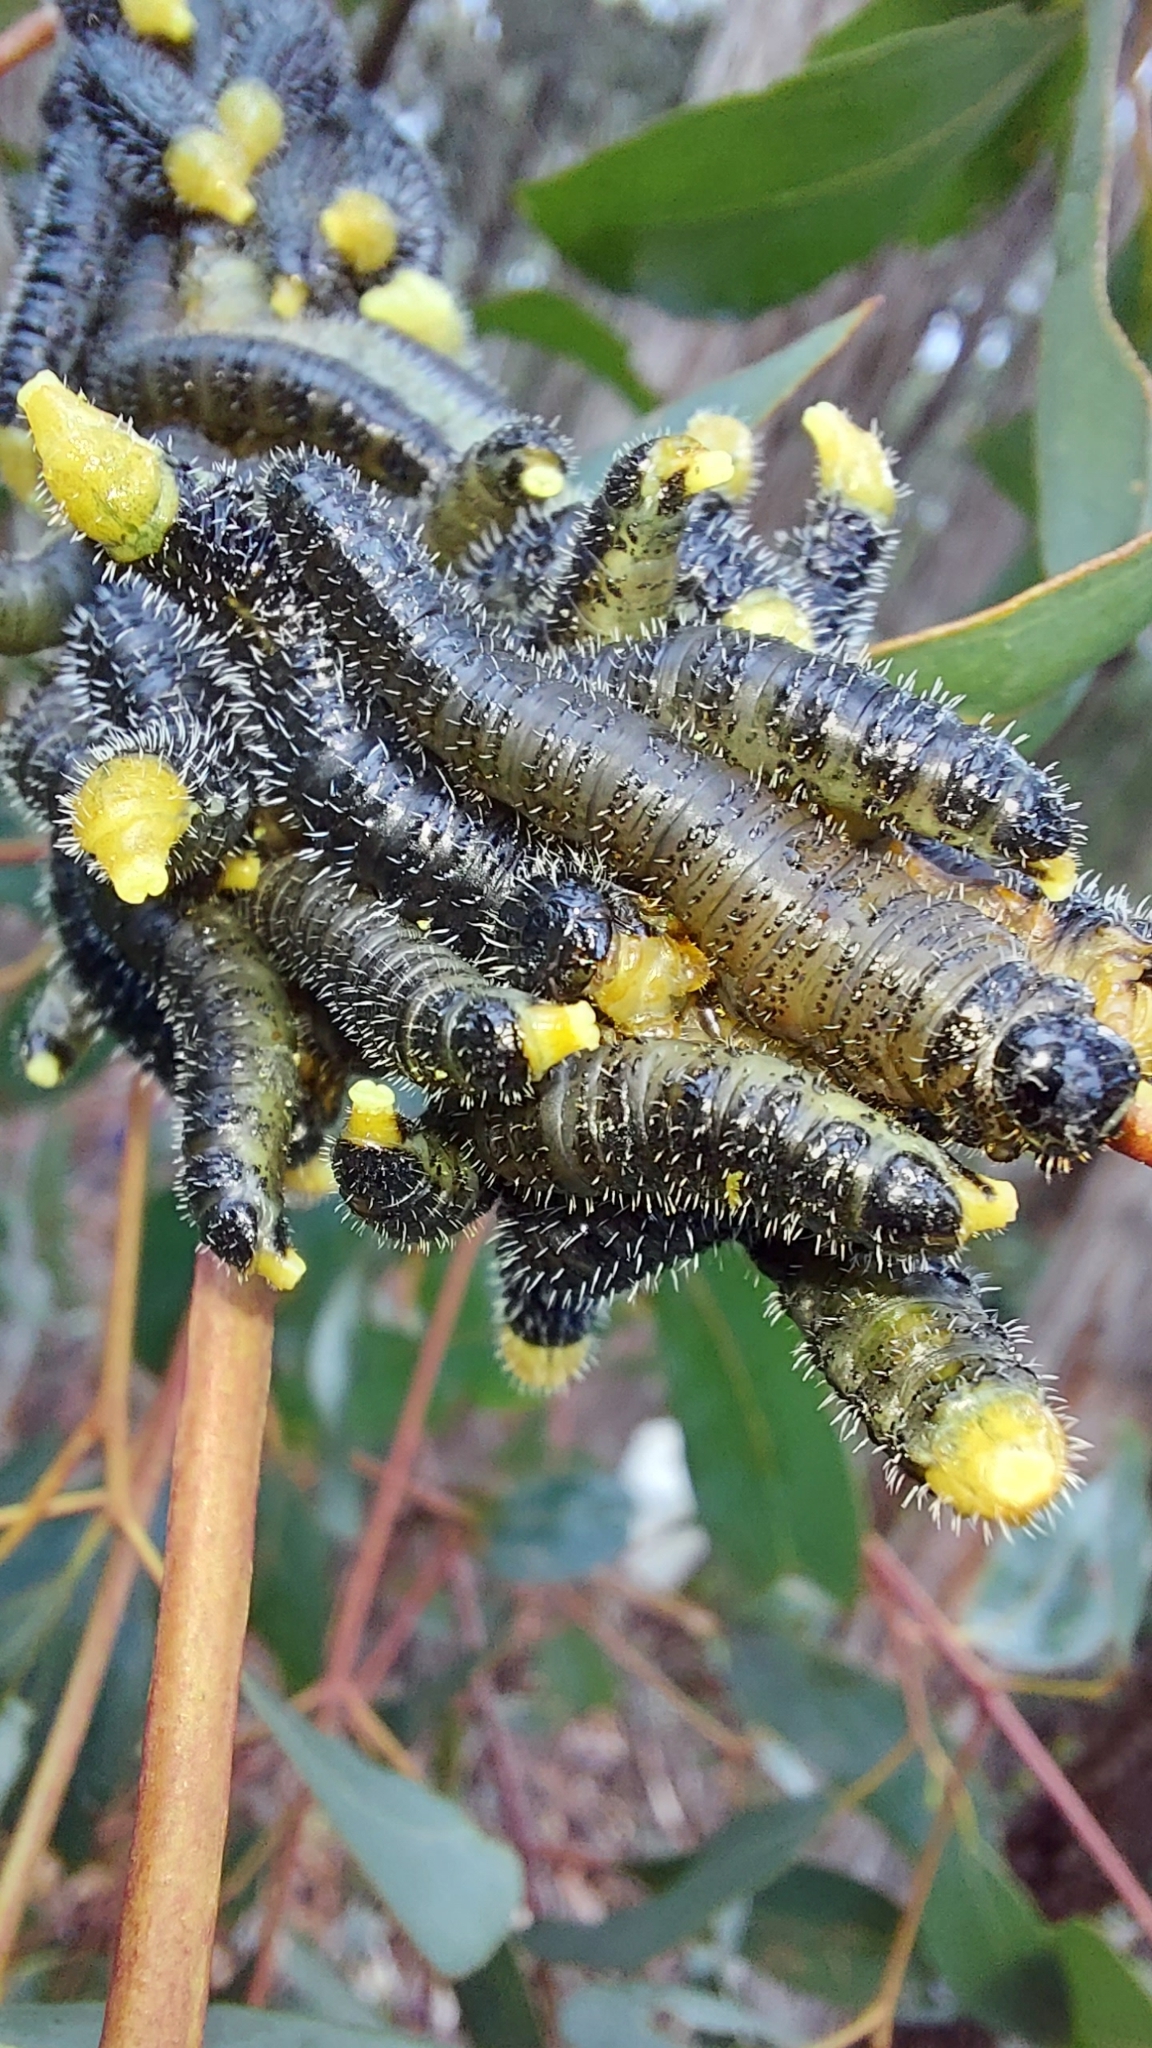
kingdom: Animalia
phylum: Arthropoda
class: Insecta
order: Hymenoptera
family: Pergidae
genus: Perga
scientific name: Perga affinis
